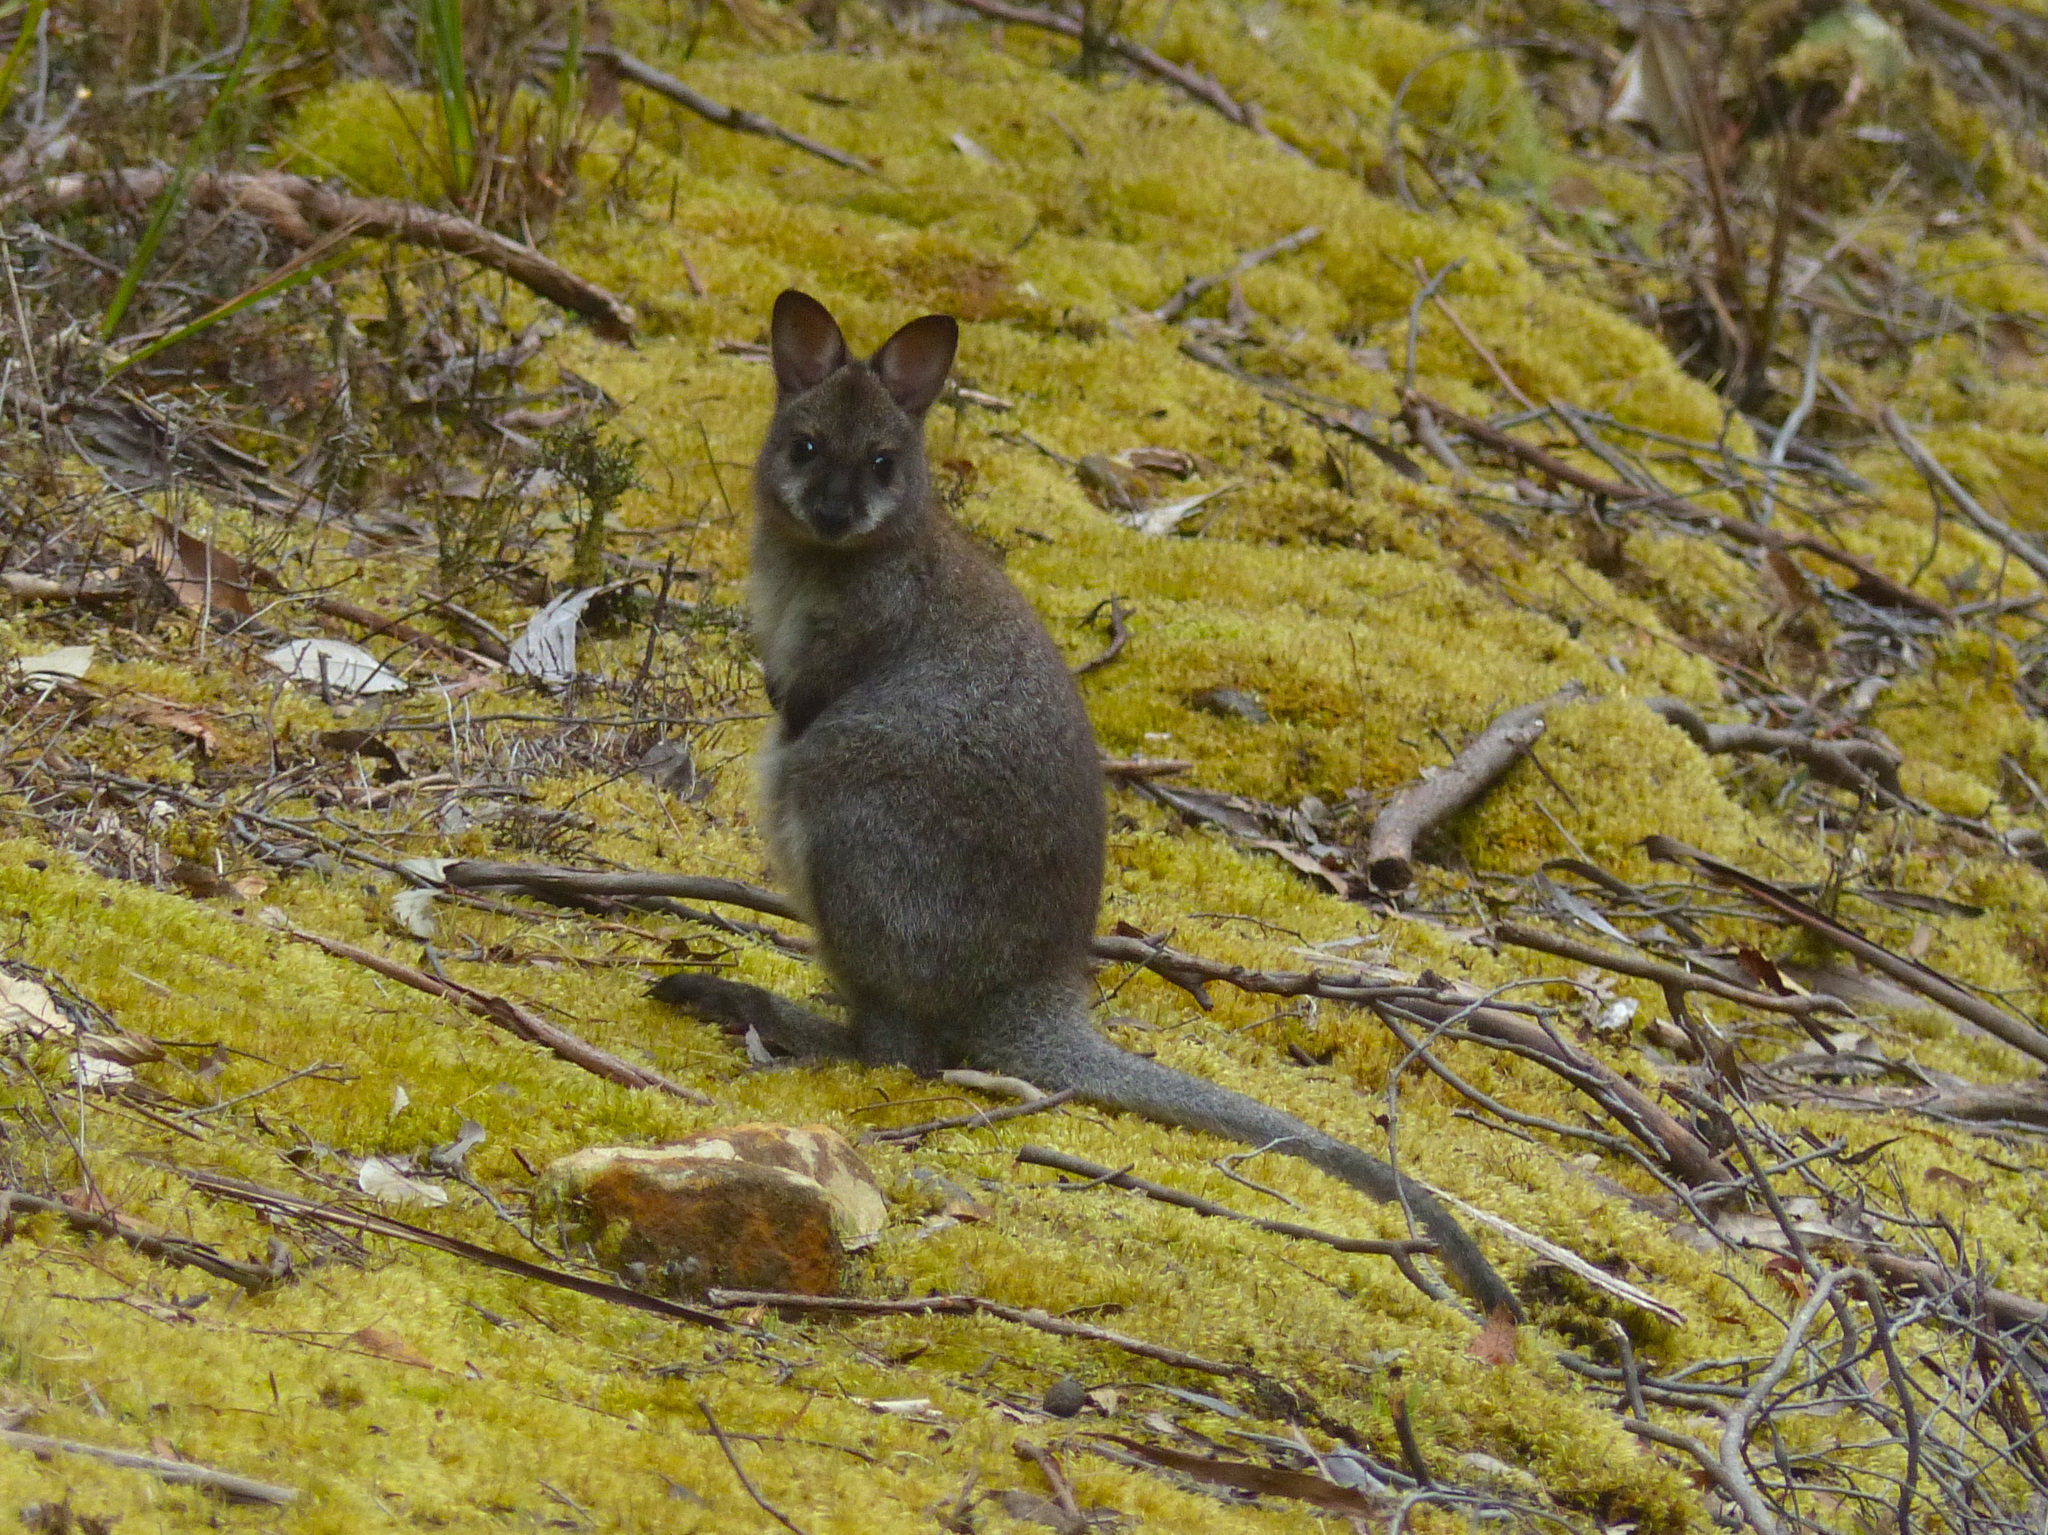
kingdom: Animalia
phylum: Chordata
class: Mammalia
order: Diprotodontia
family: Macropodidae
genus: Notamacropus
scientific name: Notamacropus rufogriseus
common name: Red-necked wallaby
